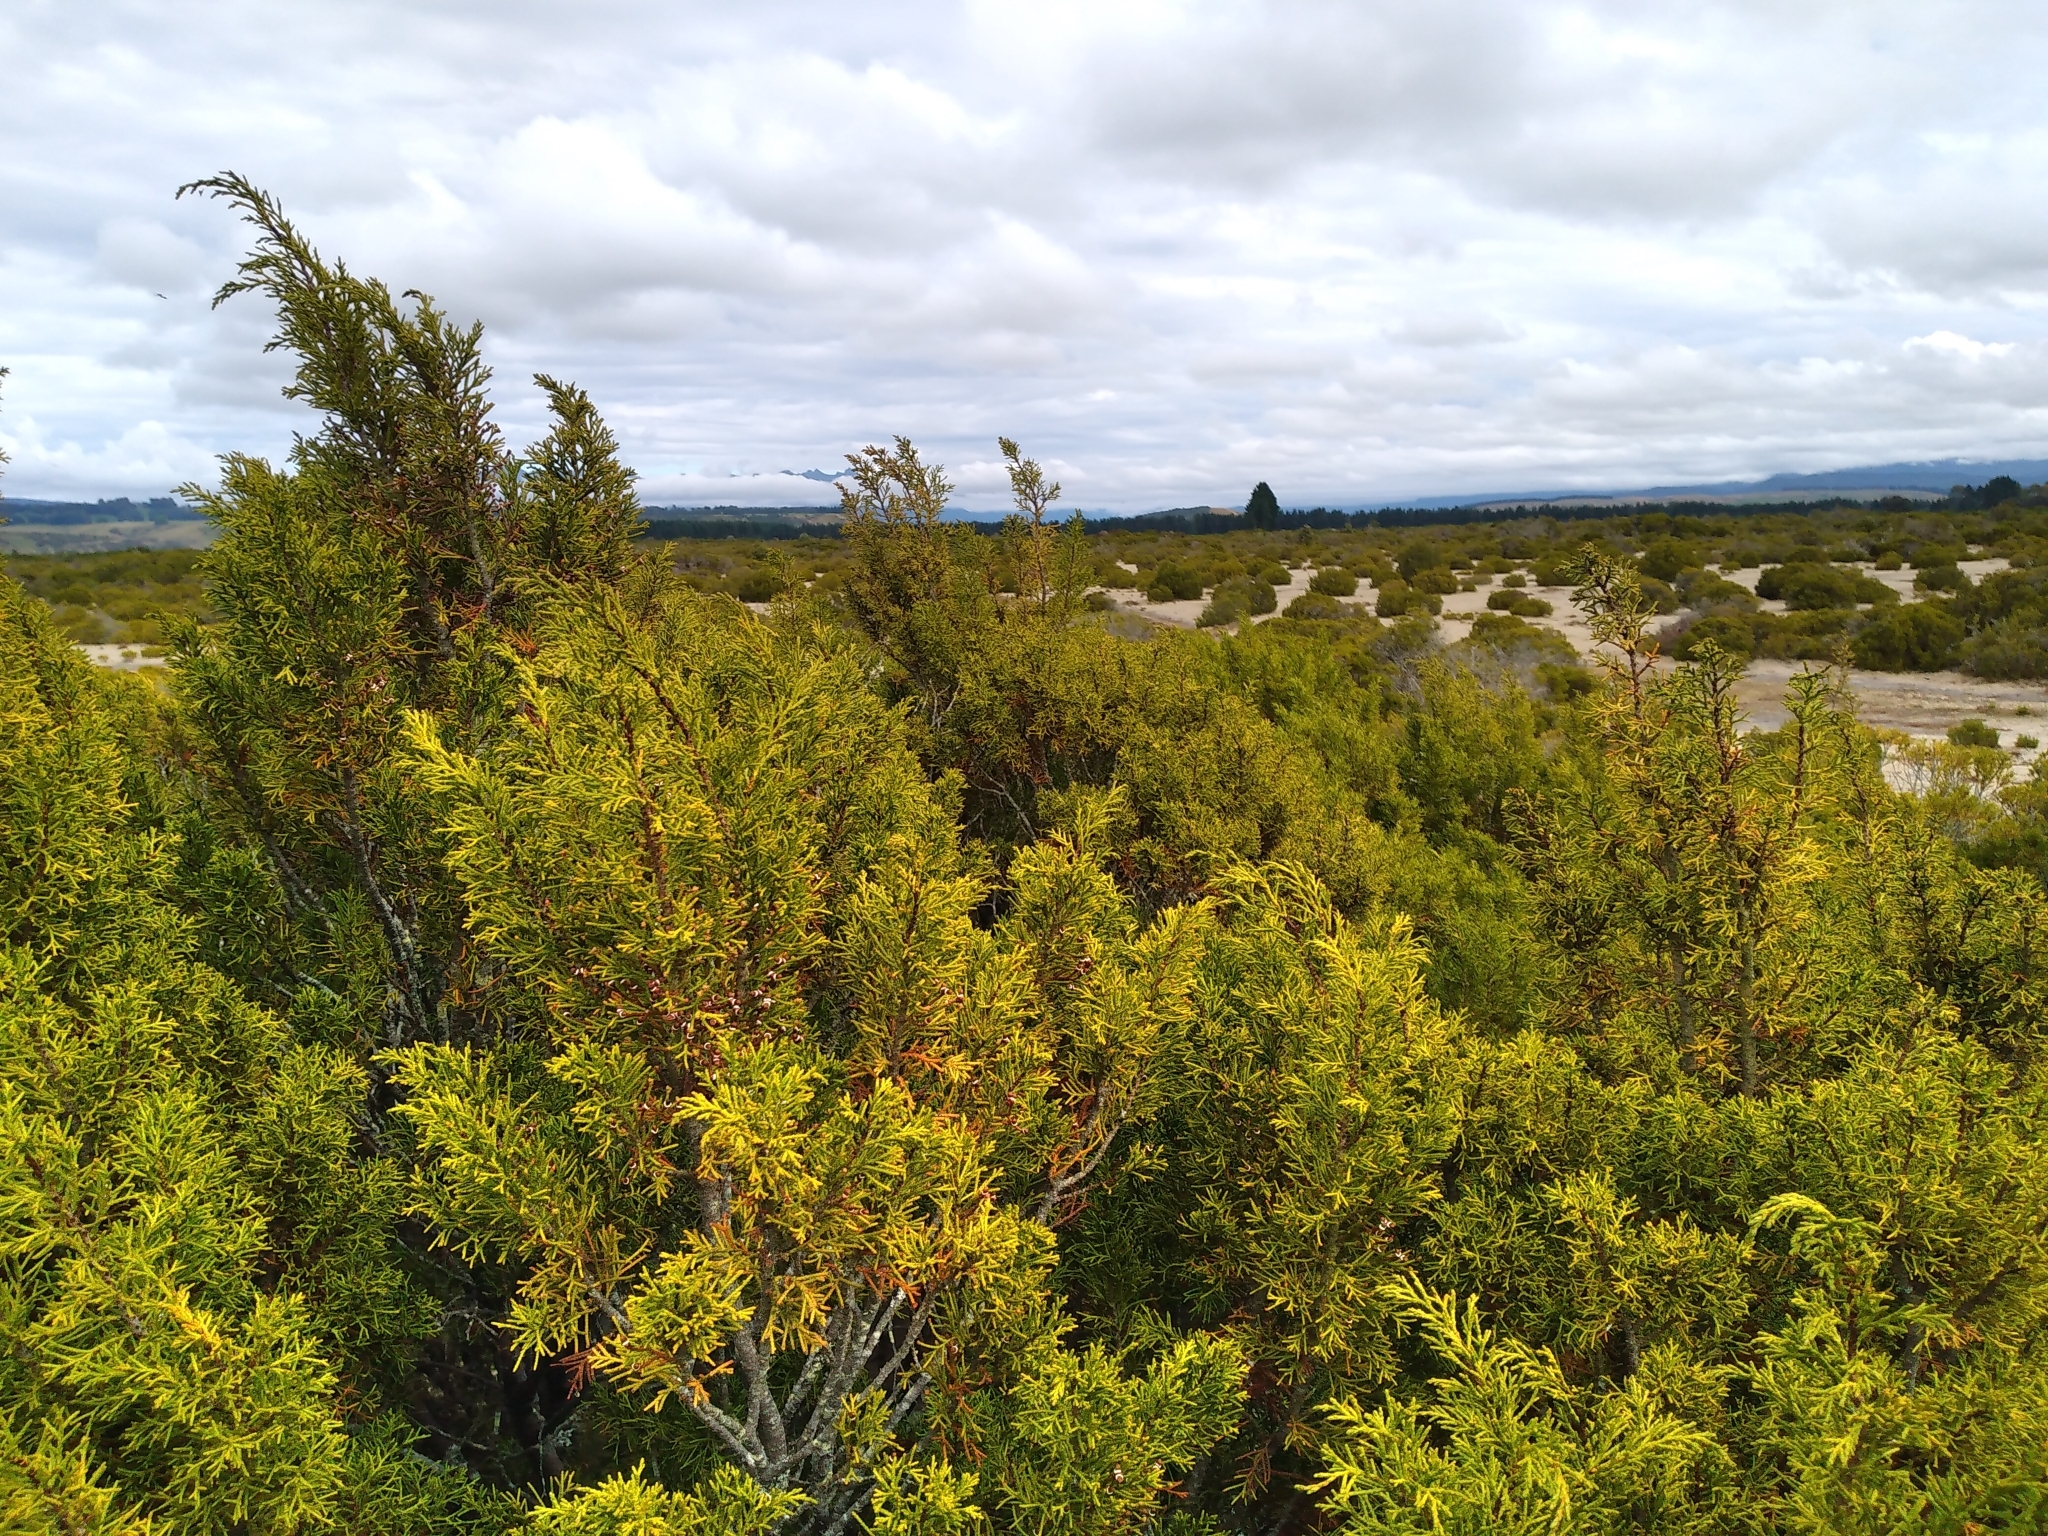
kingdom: Plantae
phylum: Tracheophyta
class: Pinopsida
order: Pinales
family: Podocarpaceae
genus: Halocarpus
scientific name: Halocarpus bidwillii
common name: Bog pine
